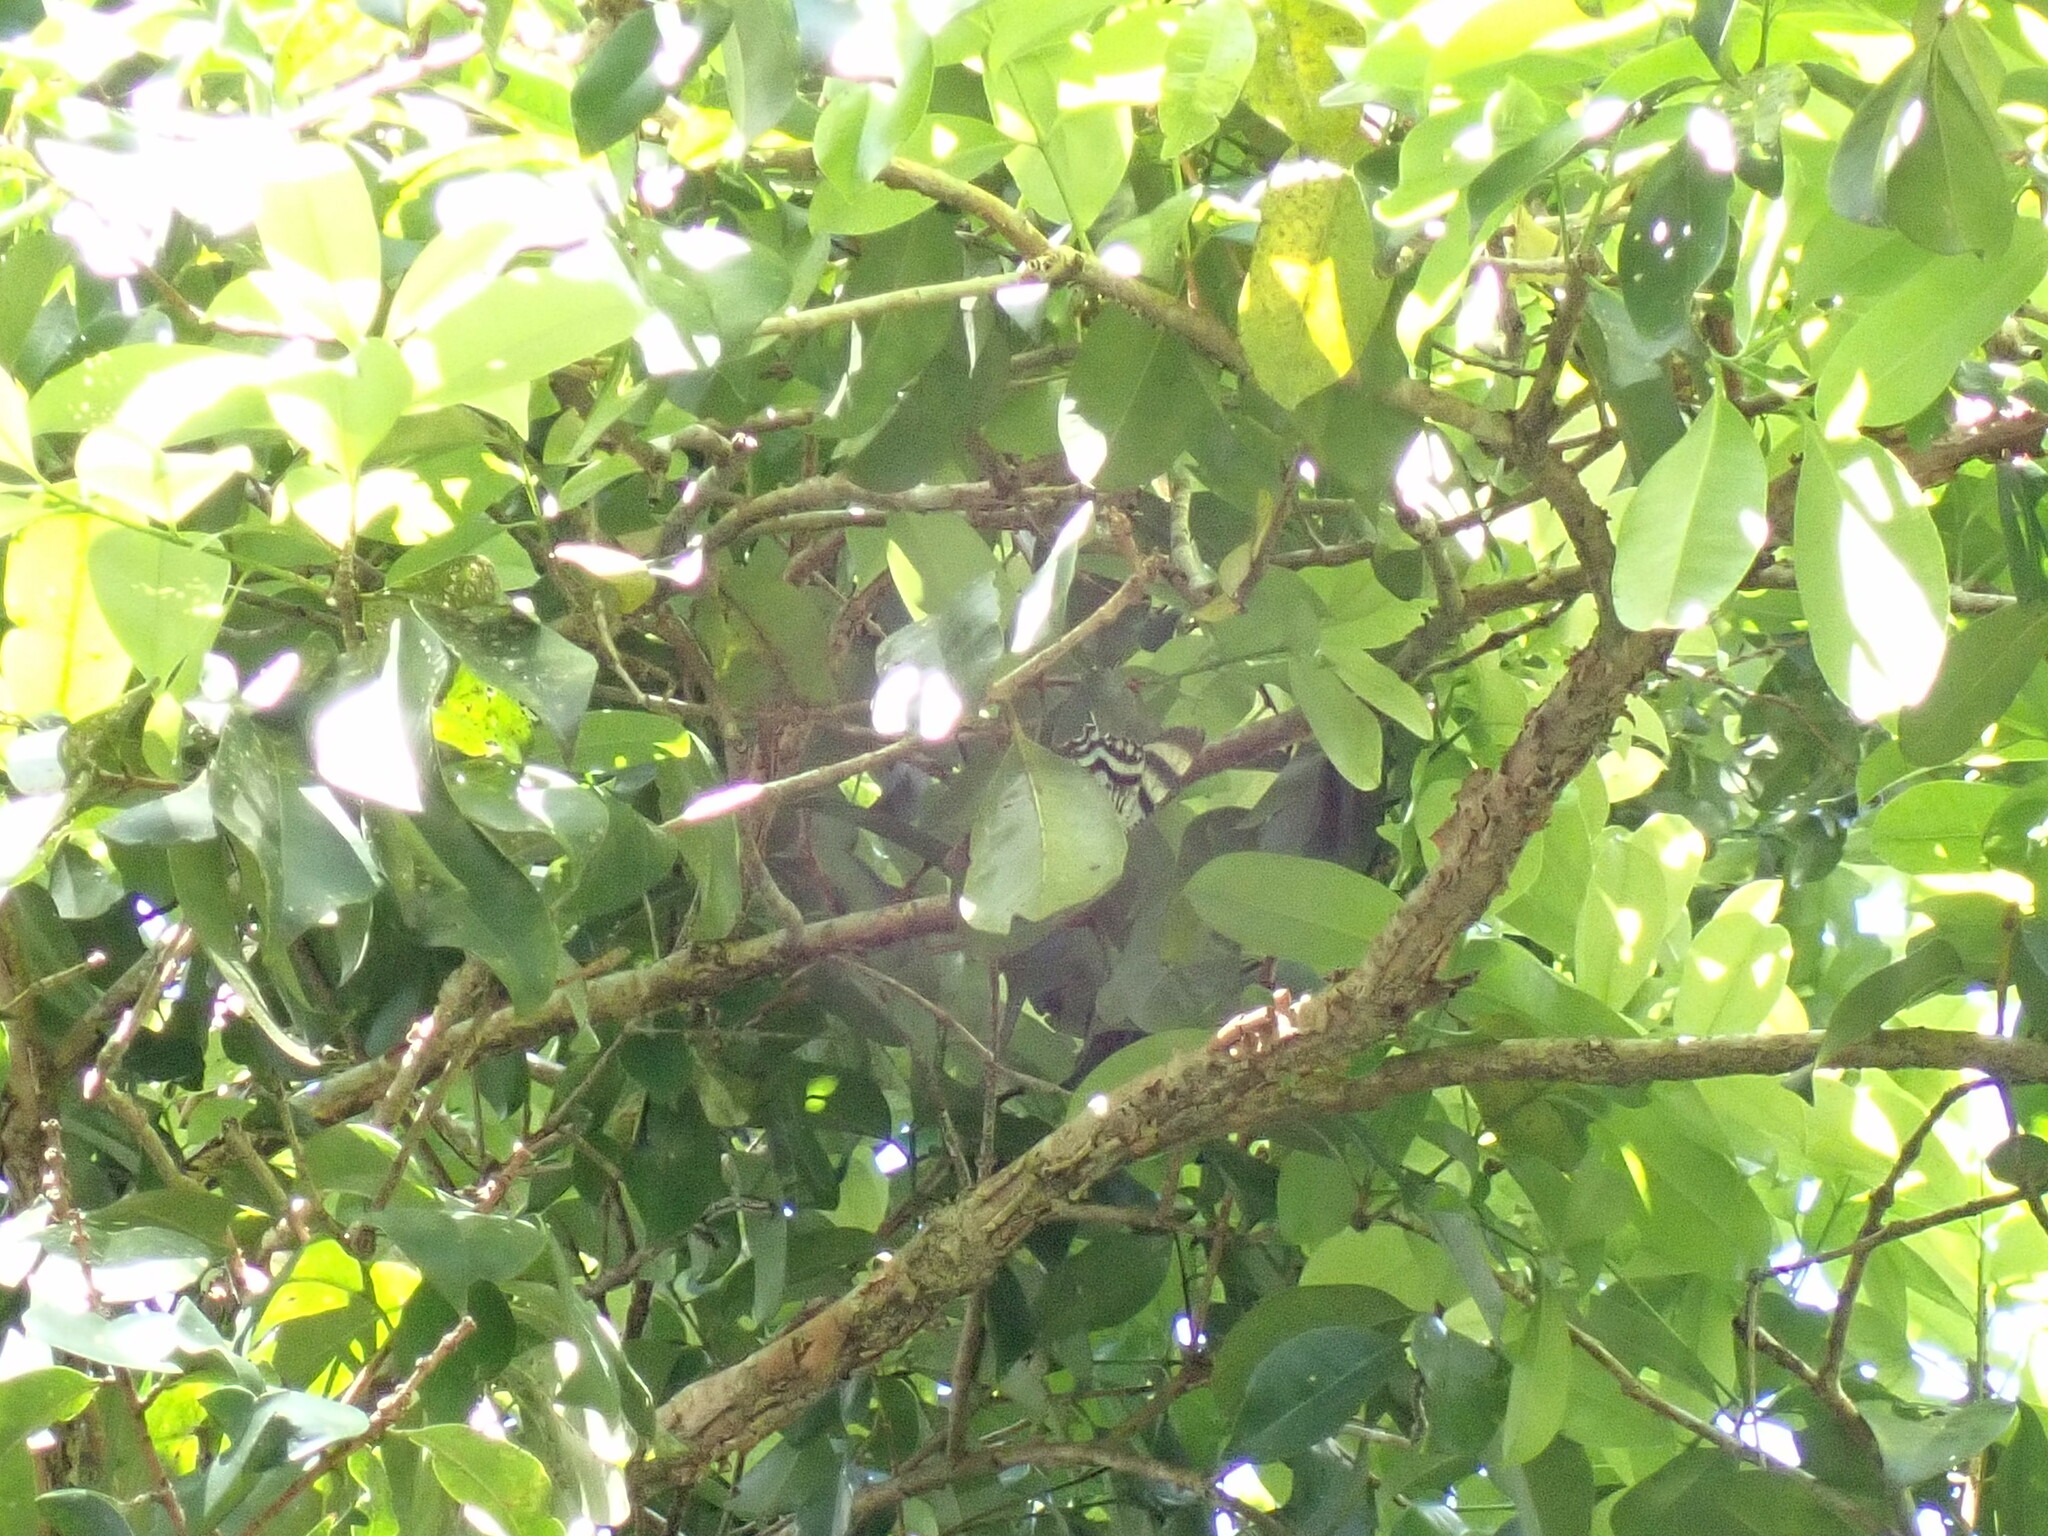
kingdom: Animalia
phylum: Arthropoda
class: Insecta
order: Lepidoptera
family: Uraniidae
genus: Alcides
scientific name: Alcides metaurus
